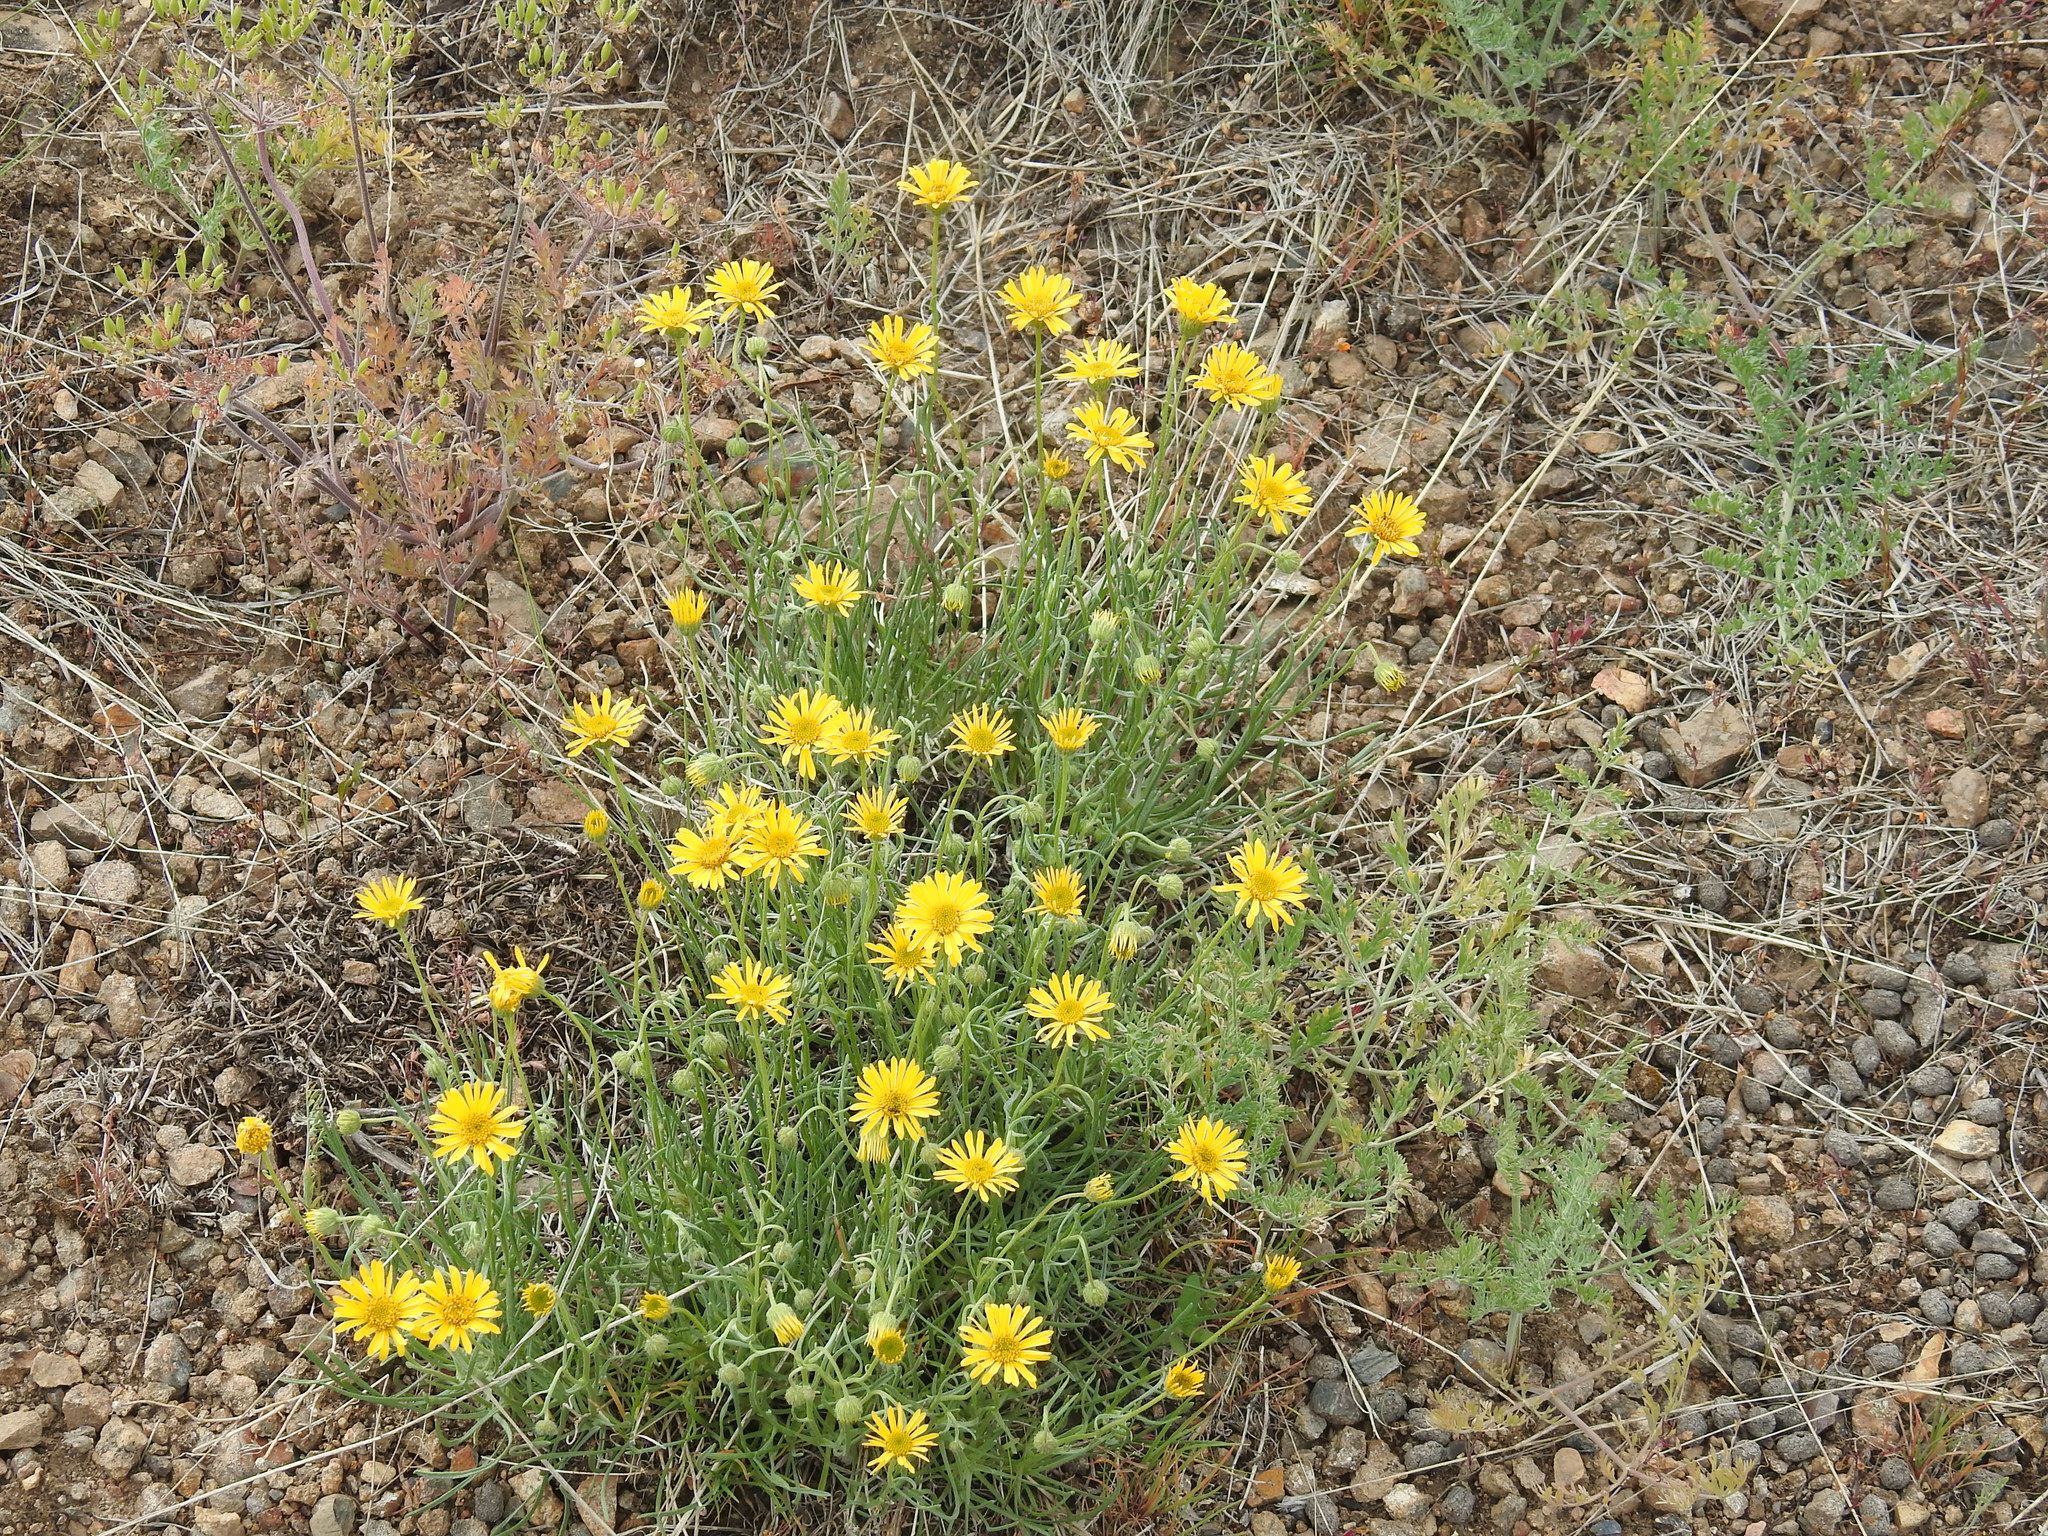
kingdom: Plantae
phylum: Tracheophyta
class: Magnoliopsida
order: Asterales
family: Asteraceae
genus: Erigeron
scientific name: Erigeron linearis
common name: Desert yellow fleabane
